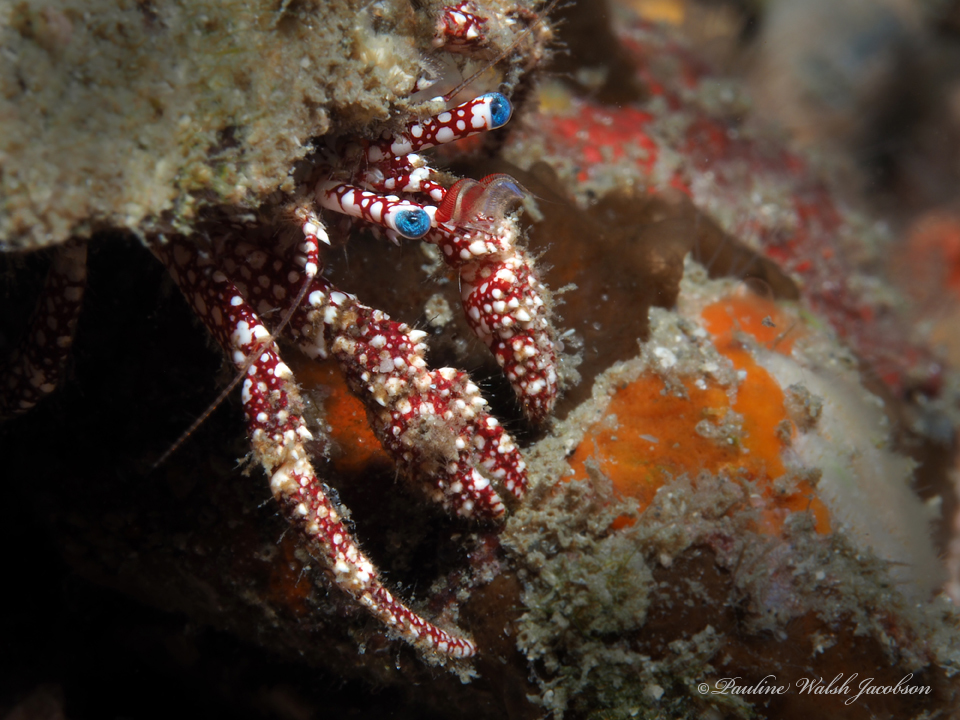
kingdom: Animalia
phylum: Arthropoda
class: Malacostraca
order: Decapoda
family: Diogenidae
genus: Paguristes
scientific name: Paguristes puncticeps
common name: White speckled hermit
